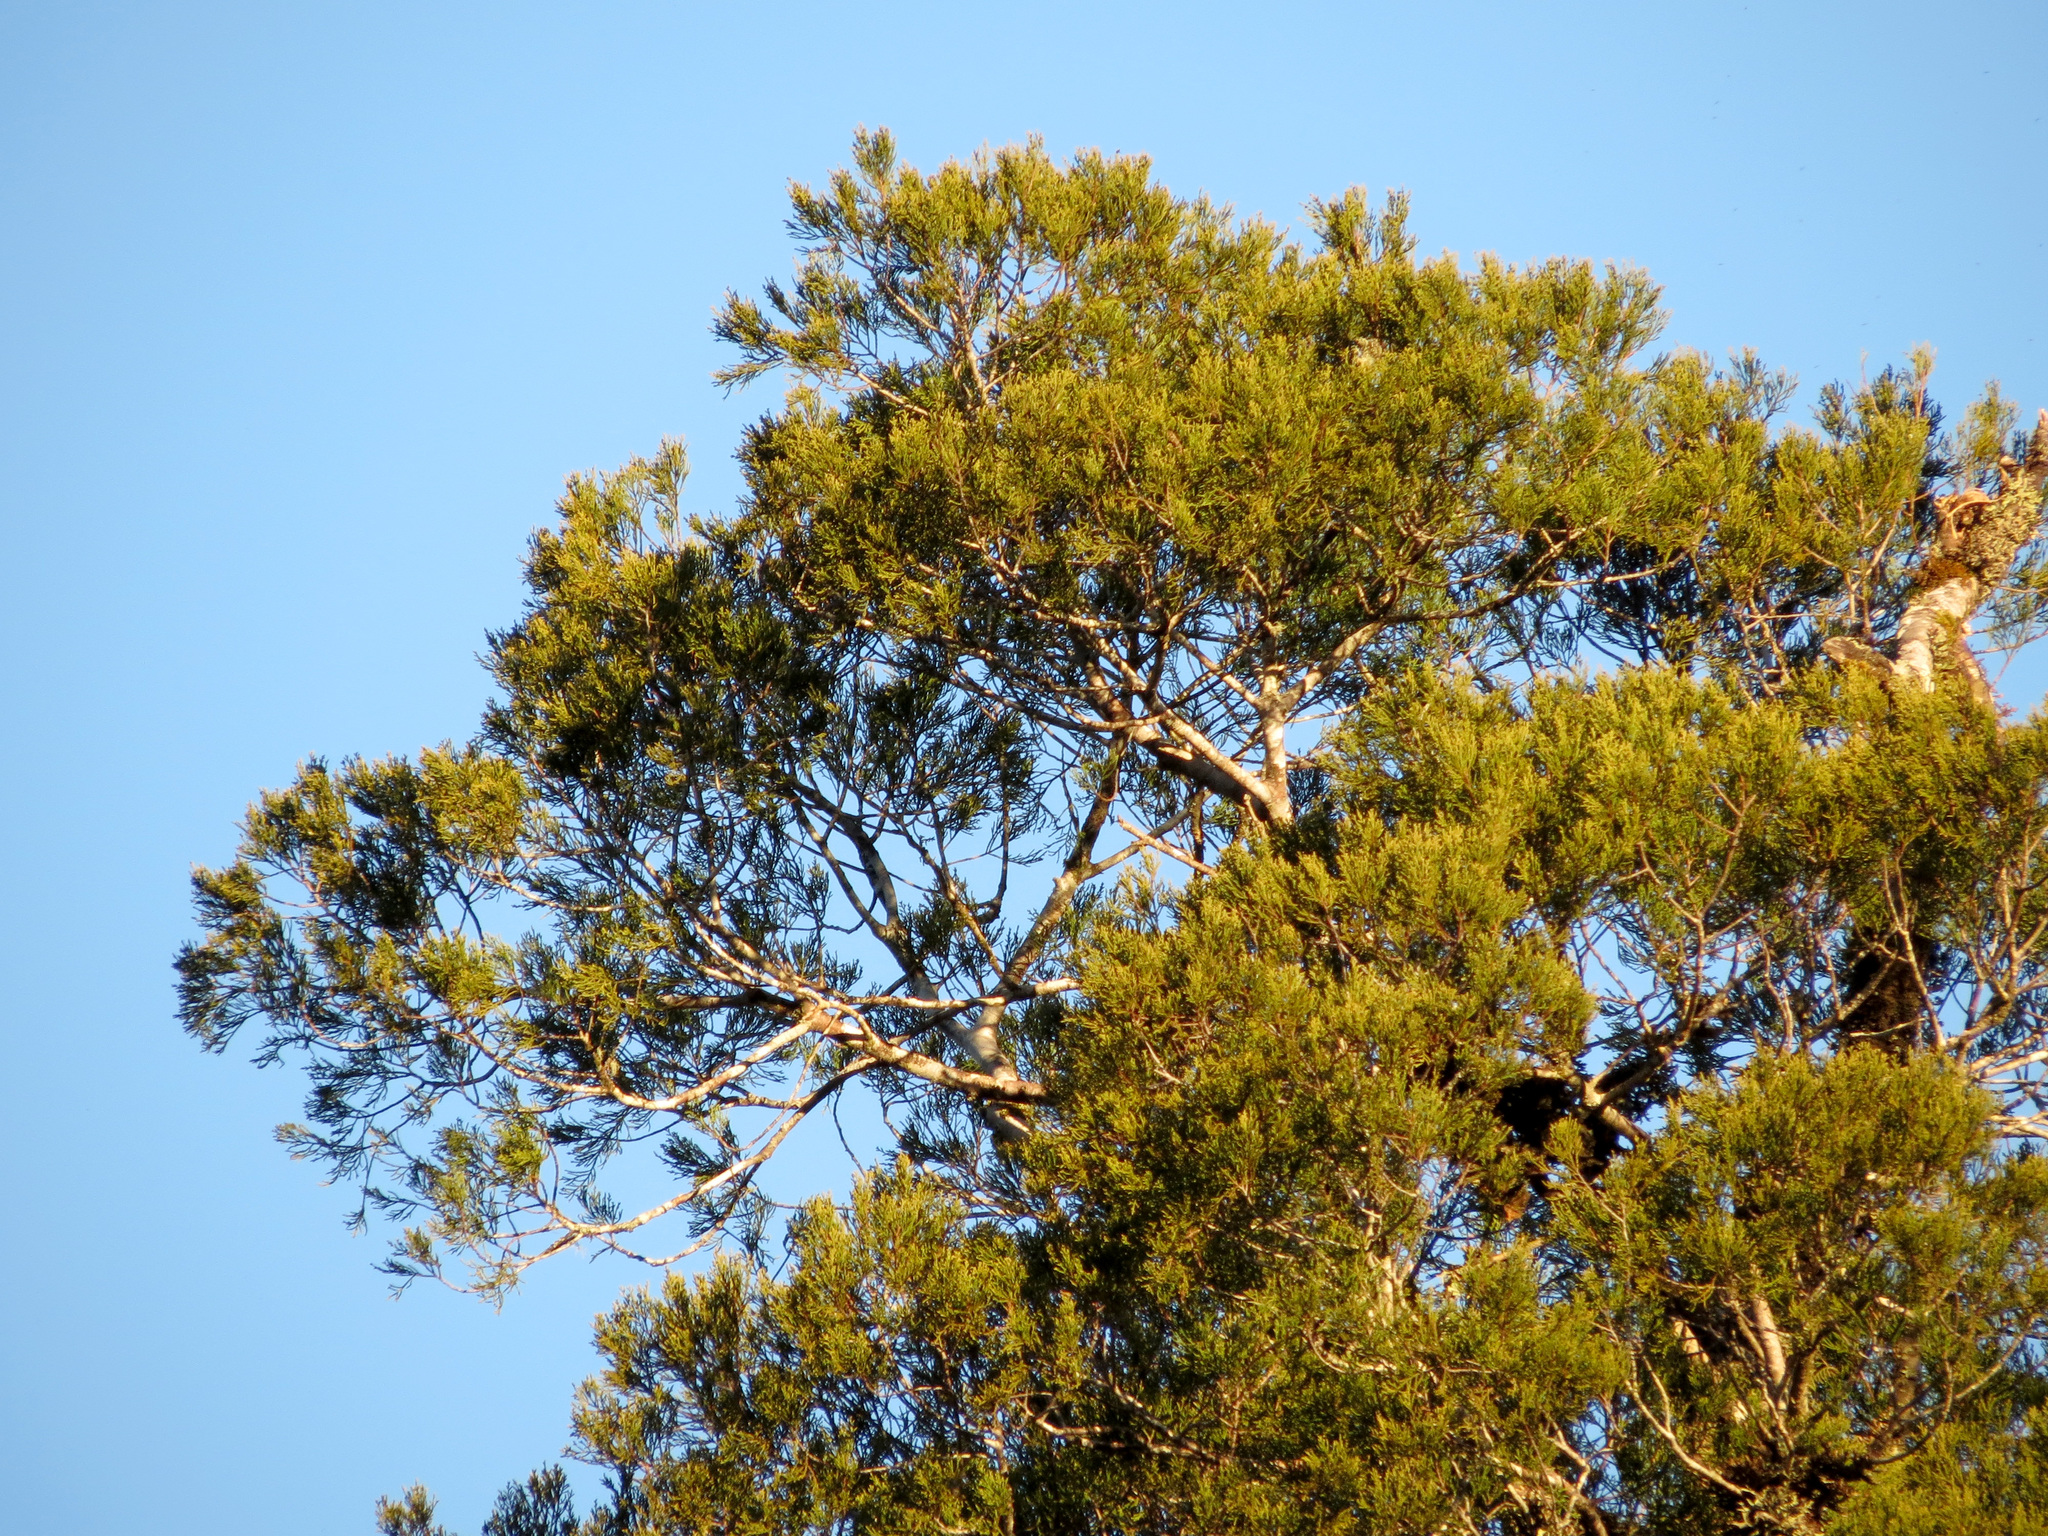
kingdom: Plantae
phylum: Tracheophyta
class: Pinopsida
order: Pinales
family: Podocarpaceae
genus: Dacrycarpus
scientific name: Dacrycarpus dacrydioides
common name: White pine
